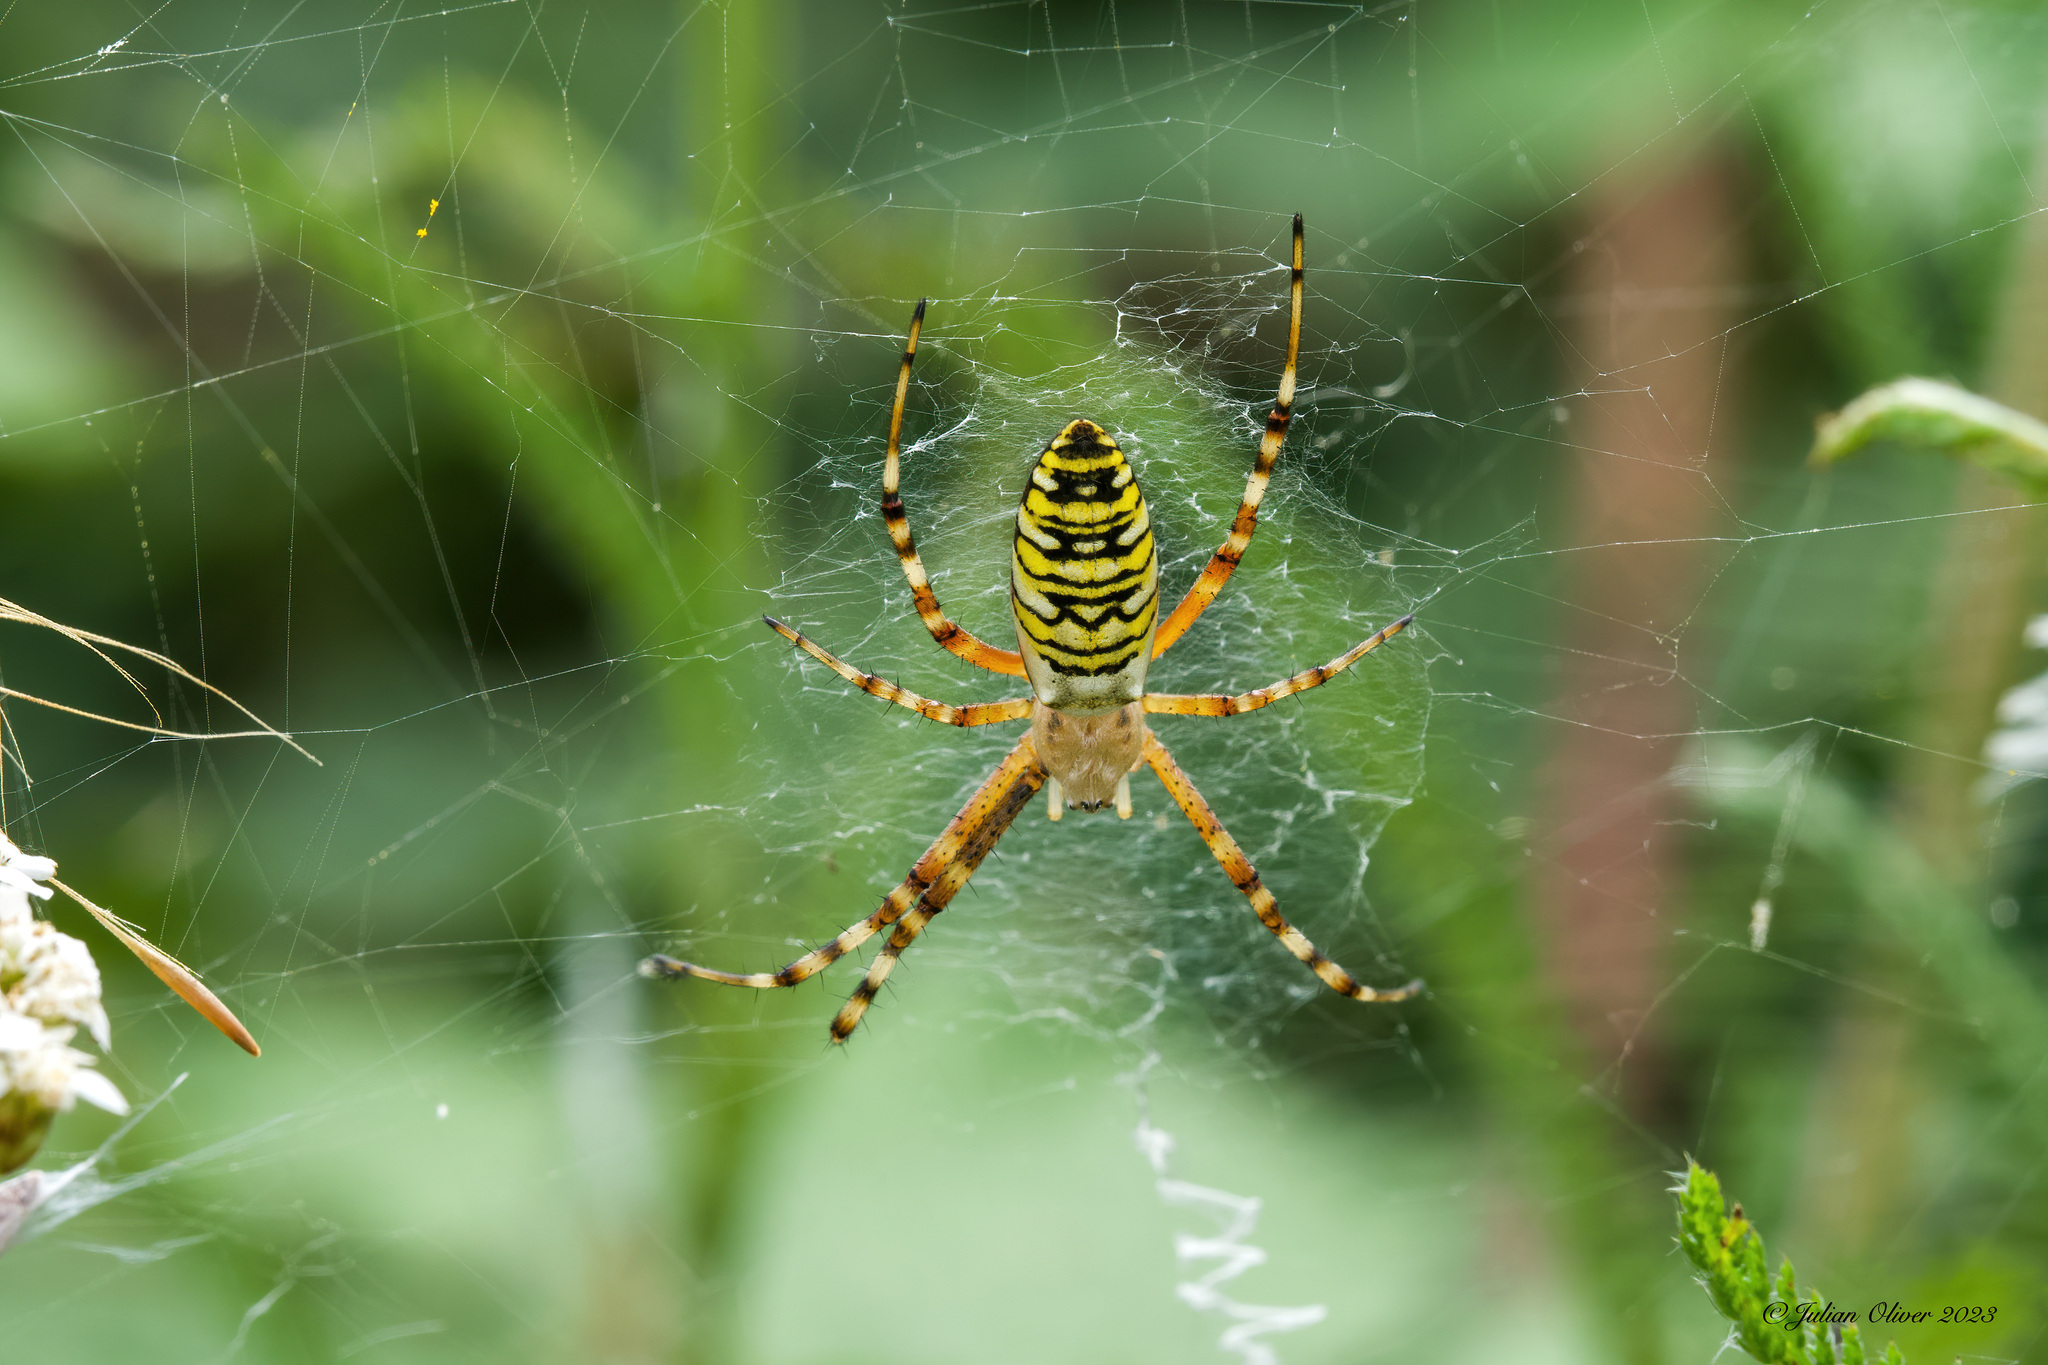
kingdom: Animalia
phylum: Arthropoda
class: Arachnida
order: Araneae
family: Araneidae
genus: Argiope
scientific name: Argiope bruennichi
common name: Wasp spider
